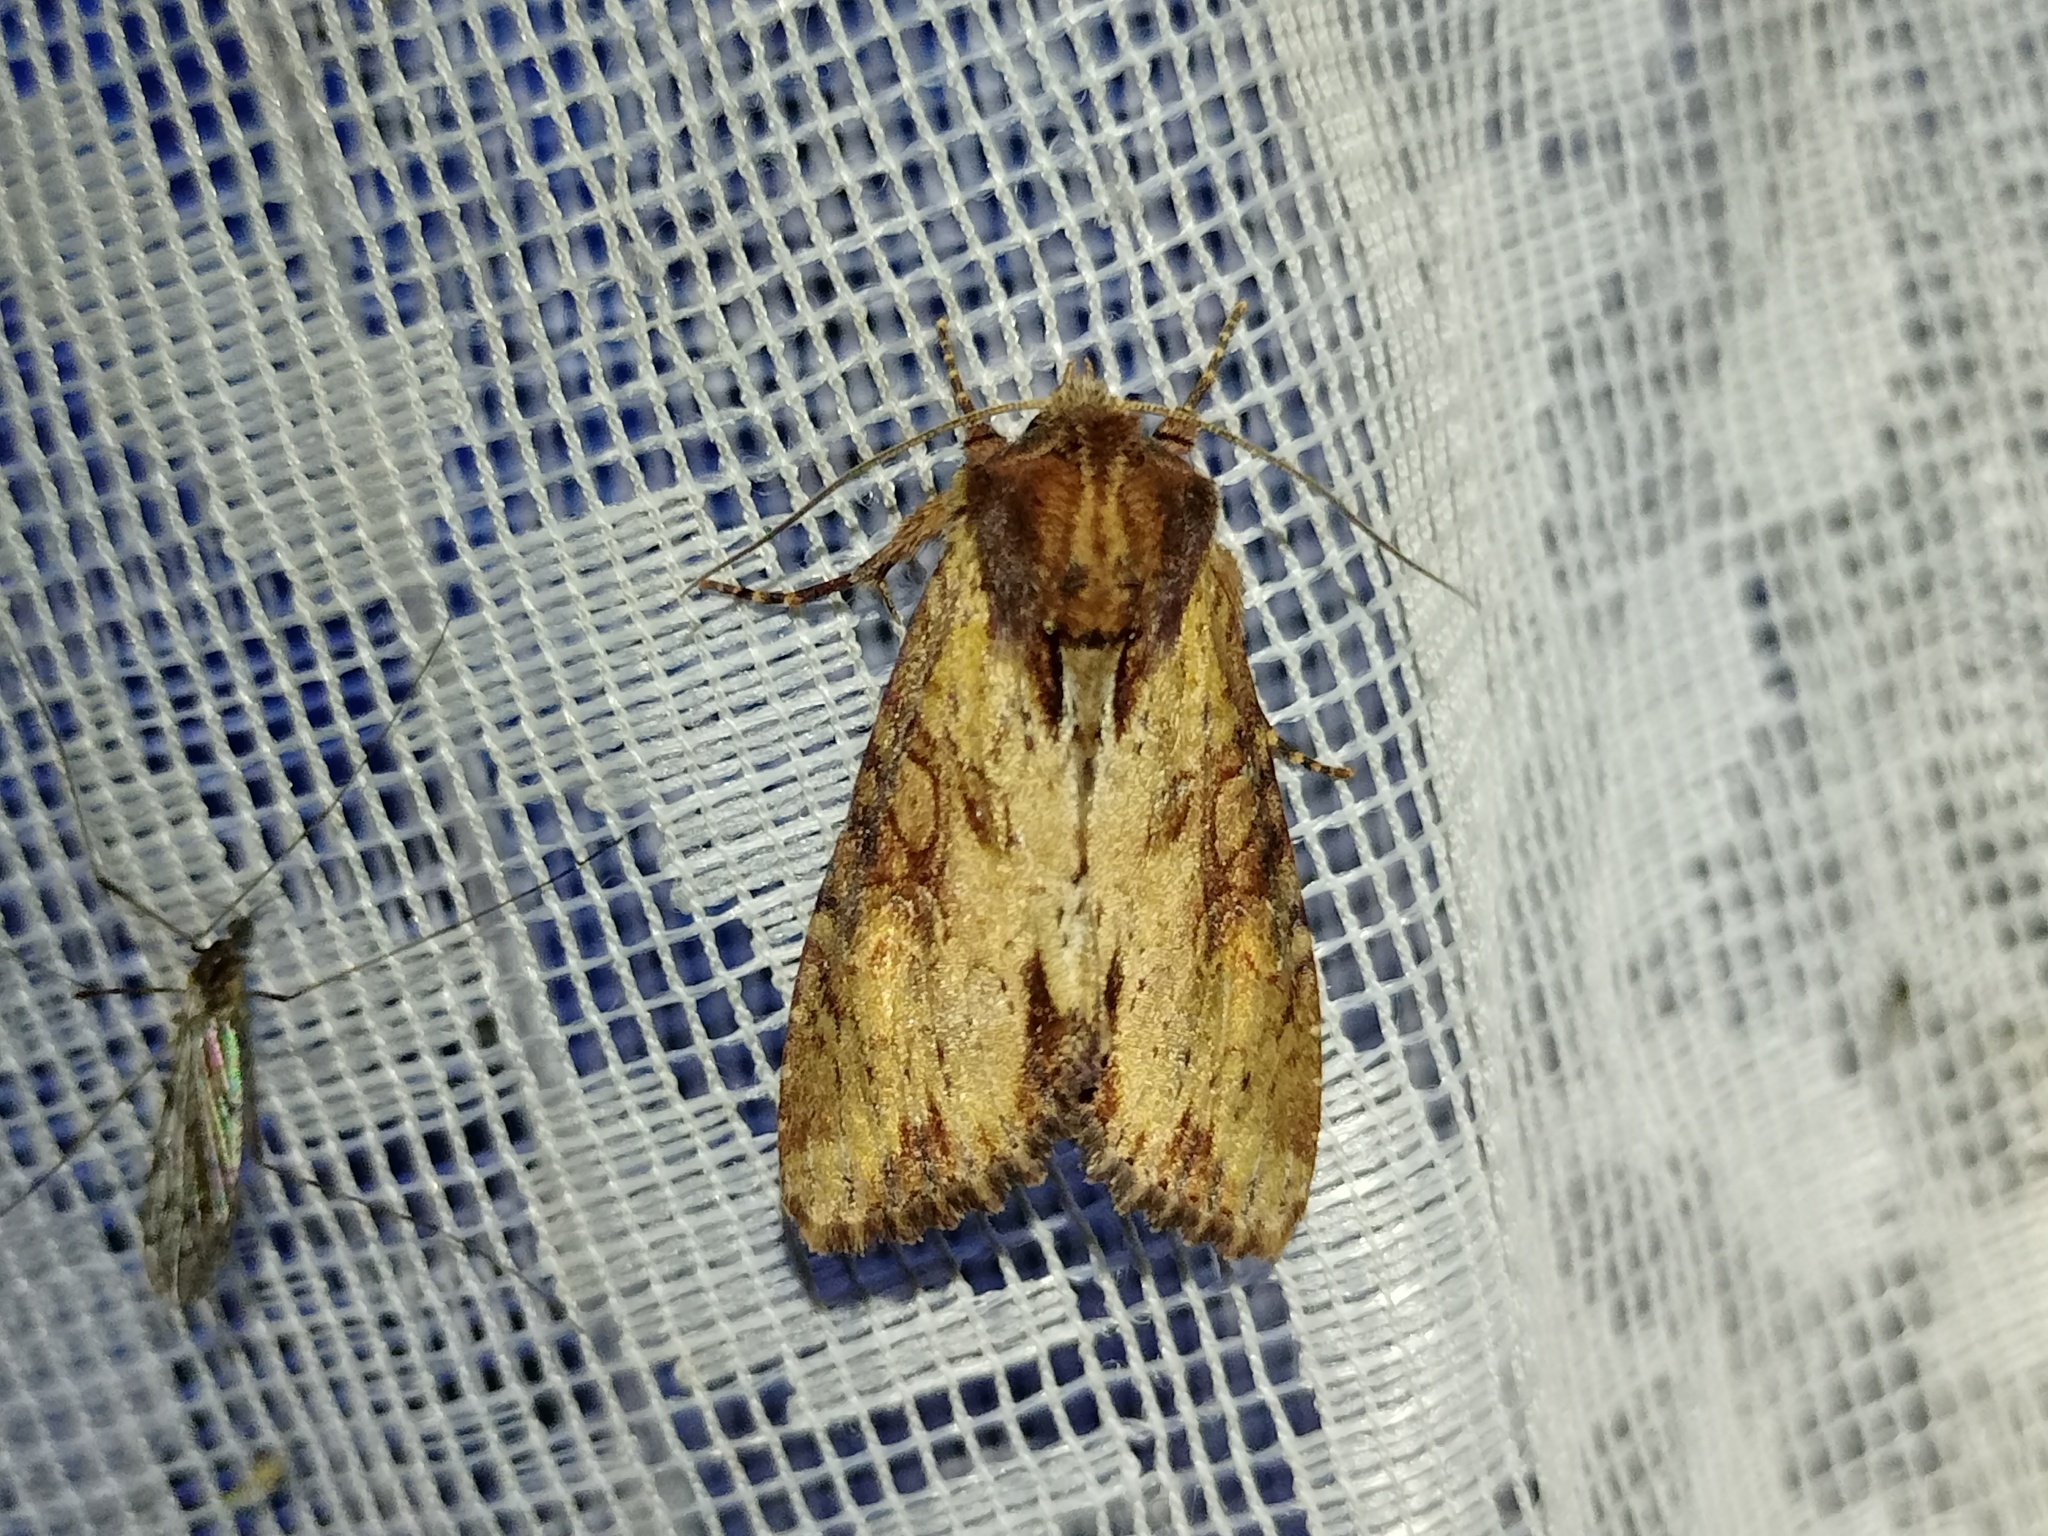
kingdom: Animalia
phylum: Arthropoda
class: Insecta
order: Lepidoptera
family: Noctuidae
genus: Apamea
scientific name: Apamea crenata
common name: Clouded-bordered brindle
